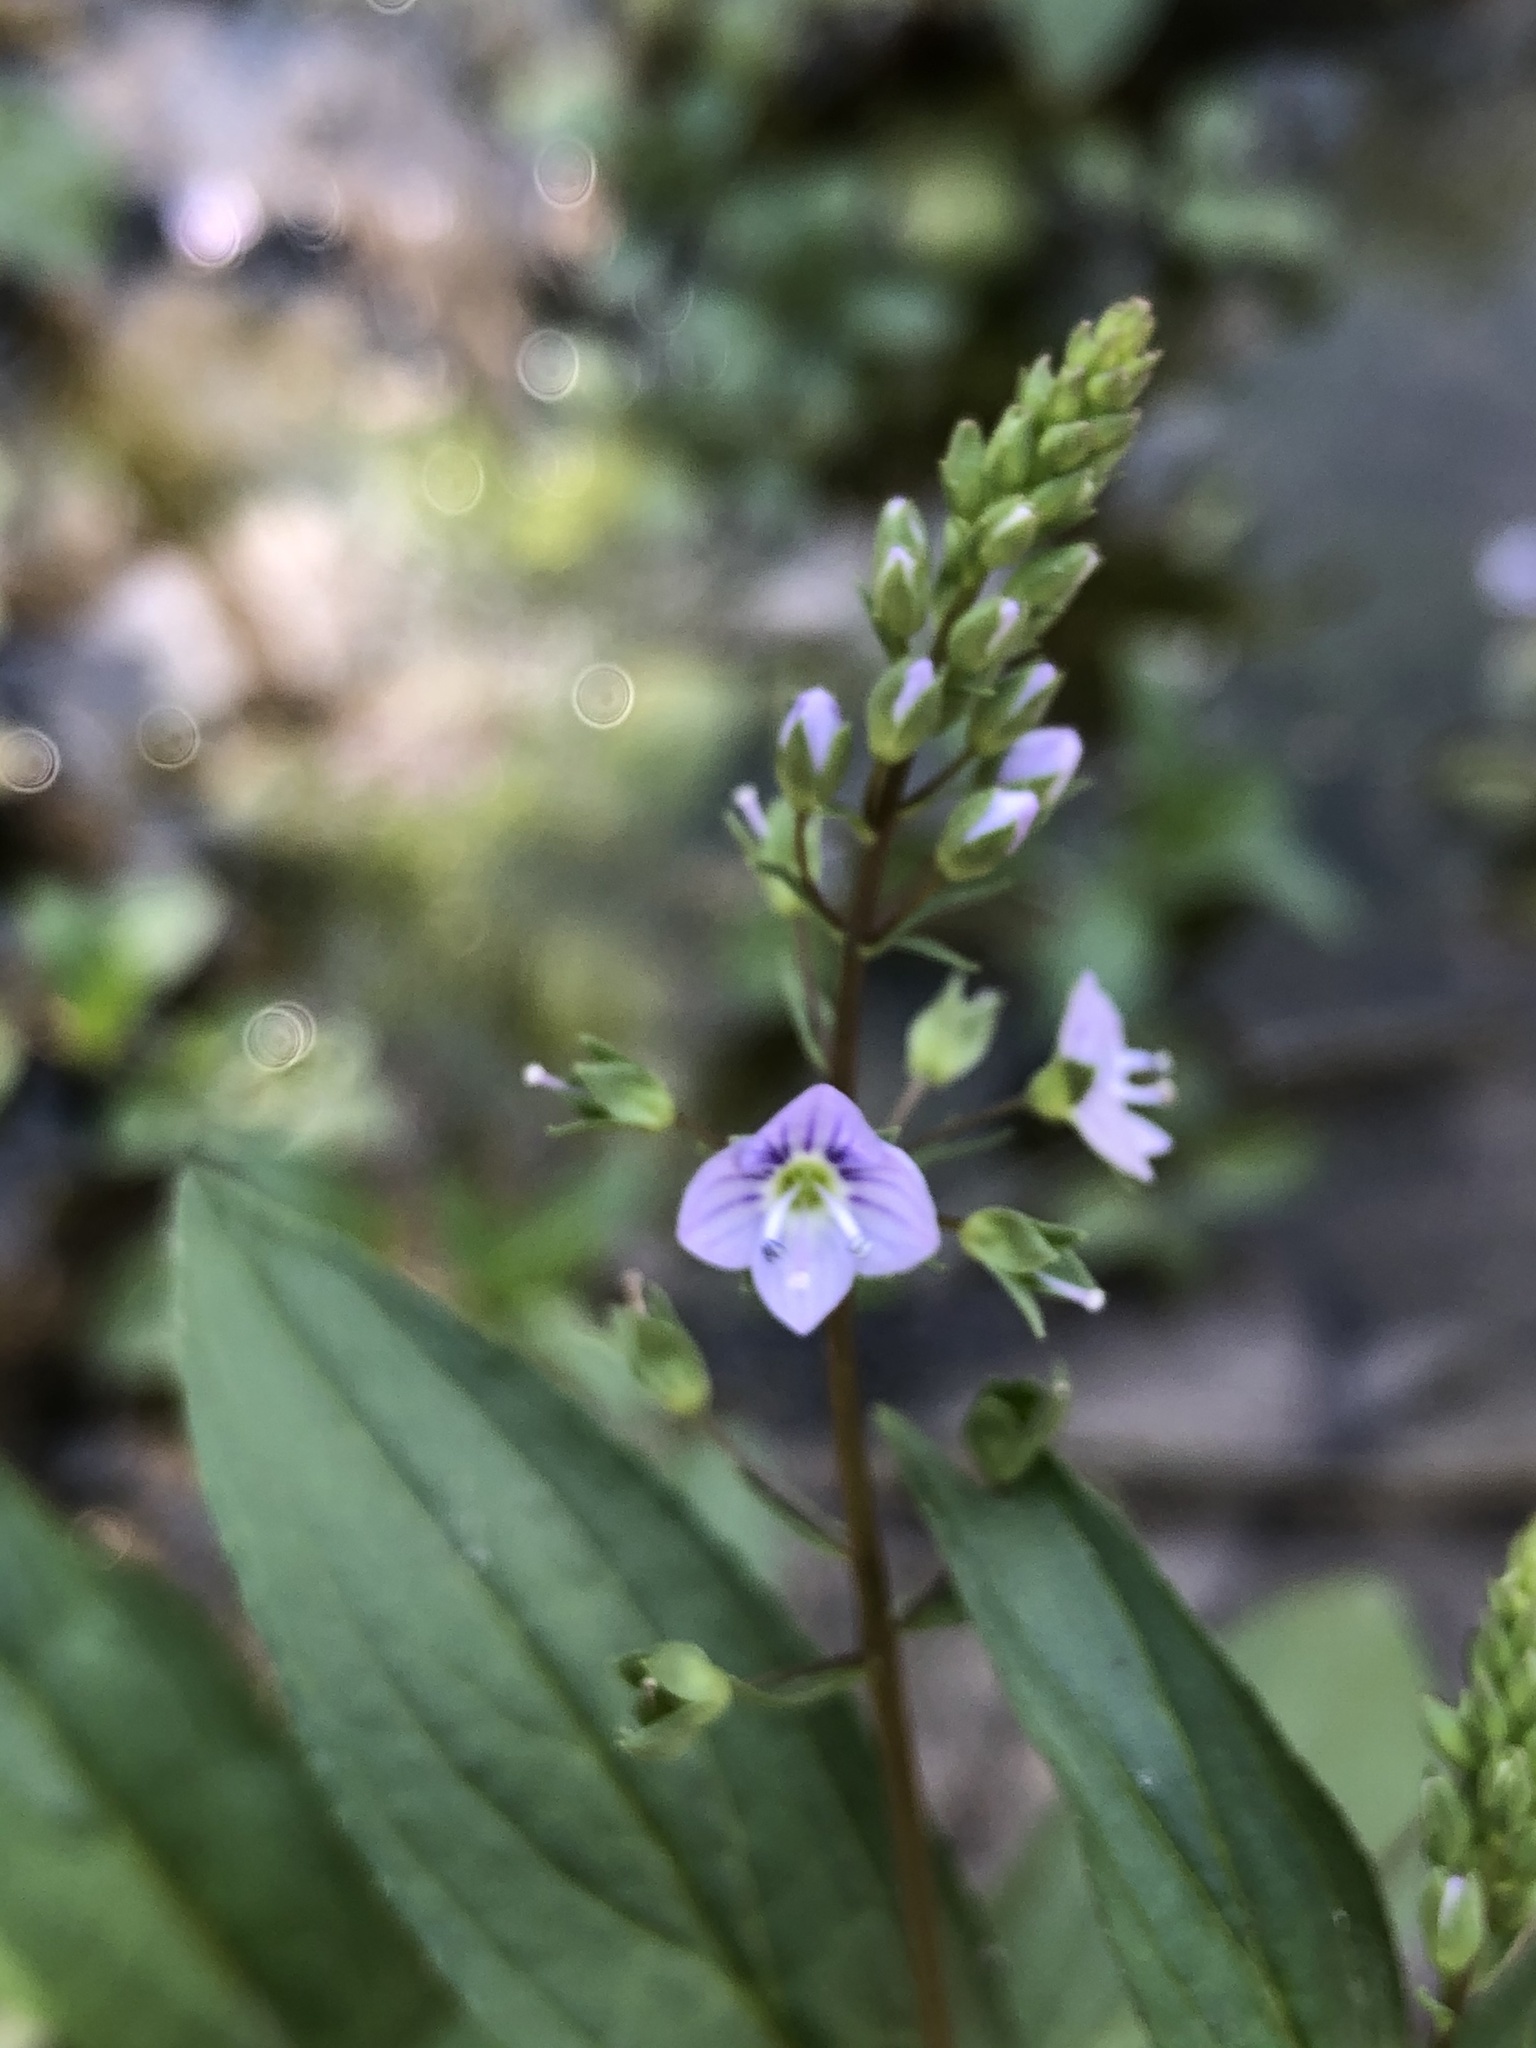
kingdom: Plantae
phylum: Tracheophyta
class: Magnoliopsida
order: Lamiales
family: Plantaginaceae
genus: Veronica
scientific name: Veronica anagallis-aquatica
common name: Water speedwell
